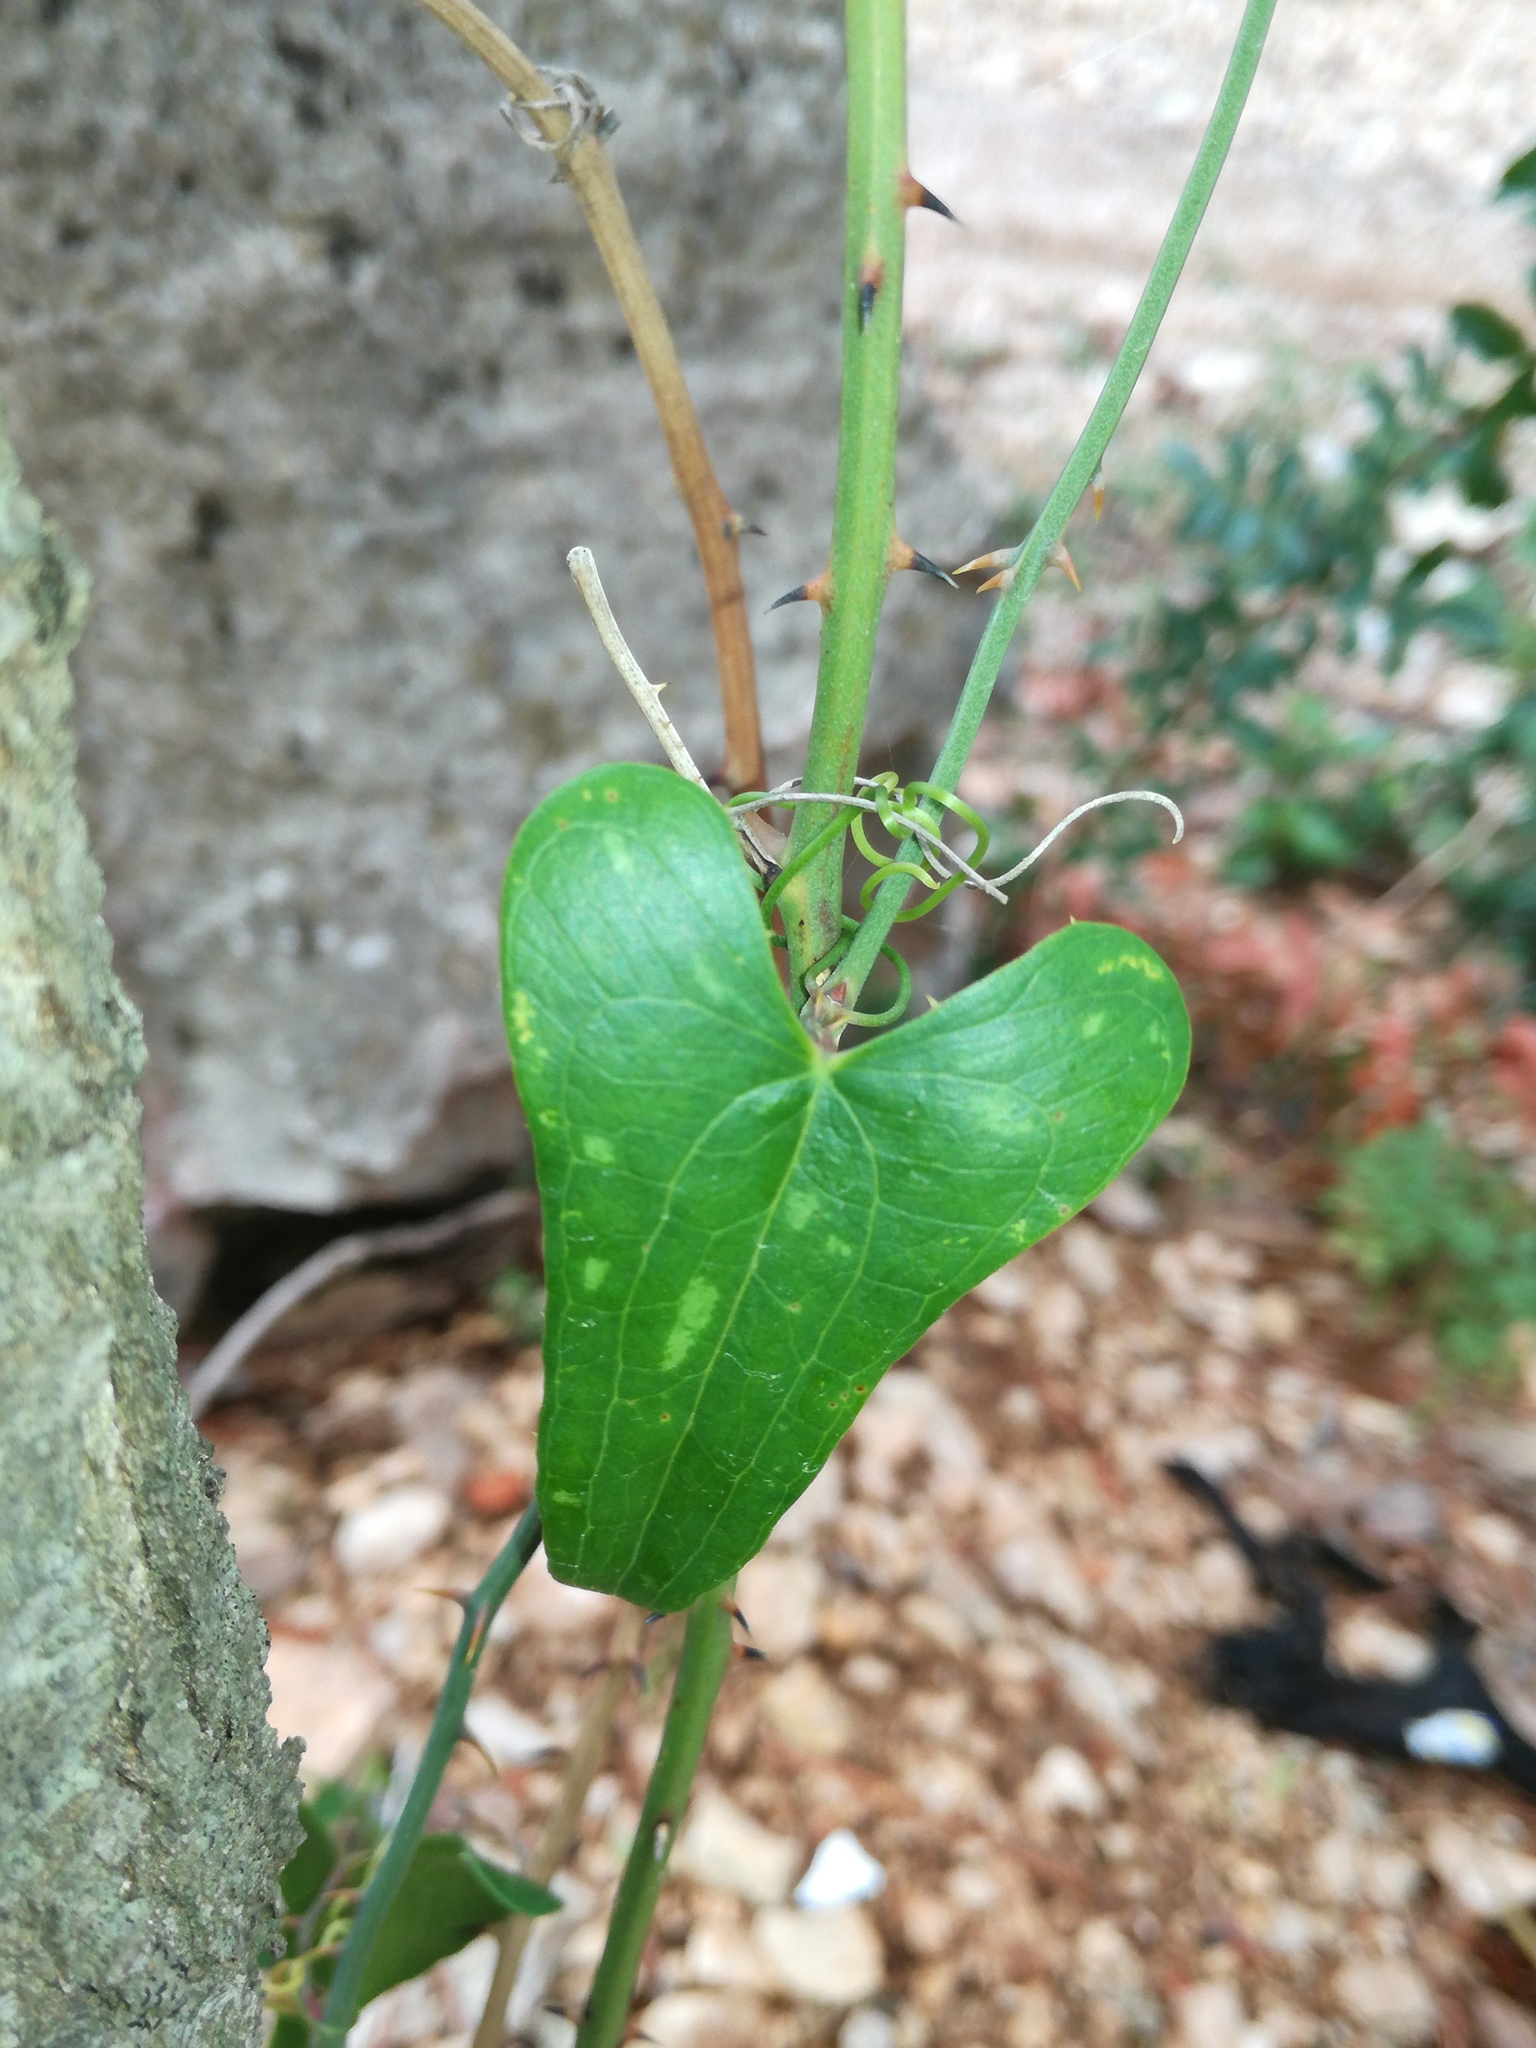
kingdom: Plantae
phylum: Tracheophyta
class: Liliopsida
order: Liliales
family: Smilacaceae
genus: Smilax
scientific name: Smilax aspera
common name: Common smilax
